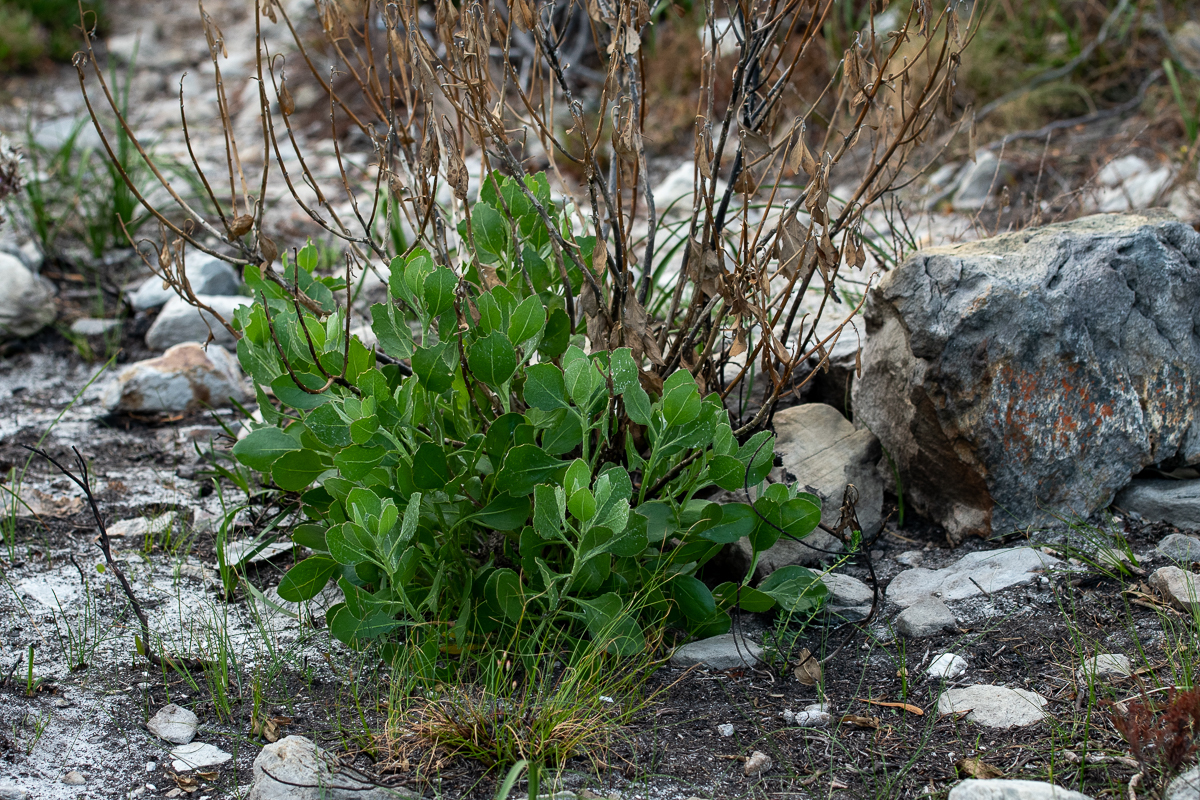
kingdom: Plantae
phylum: Tracheophyta
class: Magnoliopsida
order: Asterales
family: Asteraceae
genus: Osteospermum
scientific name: Osteospermum moniliferum
